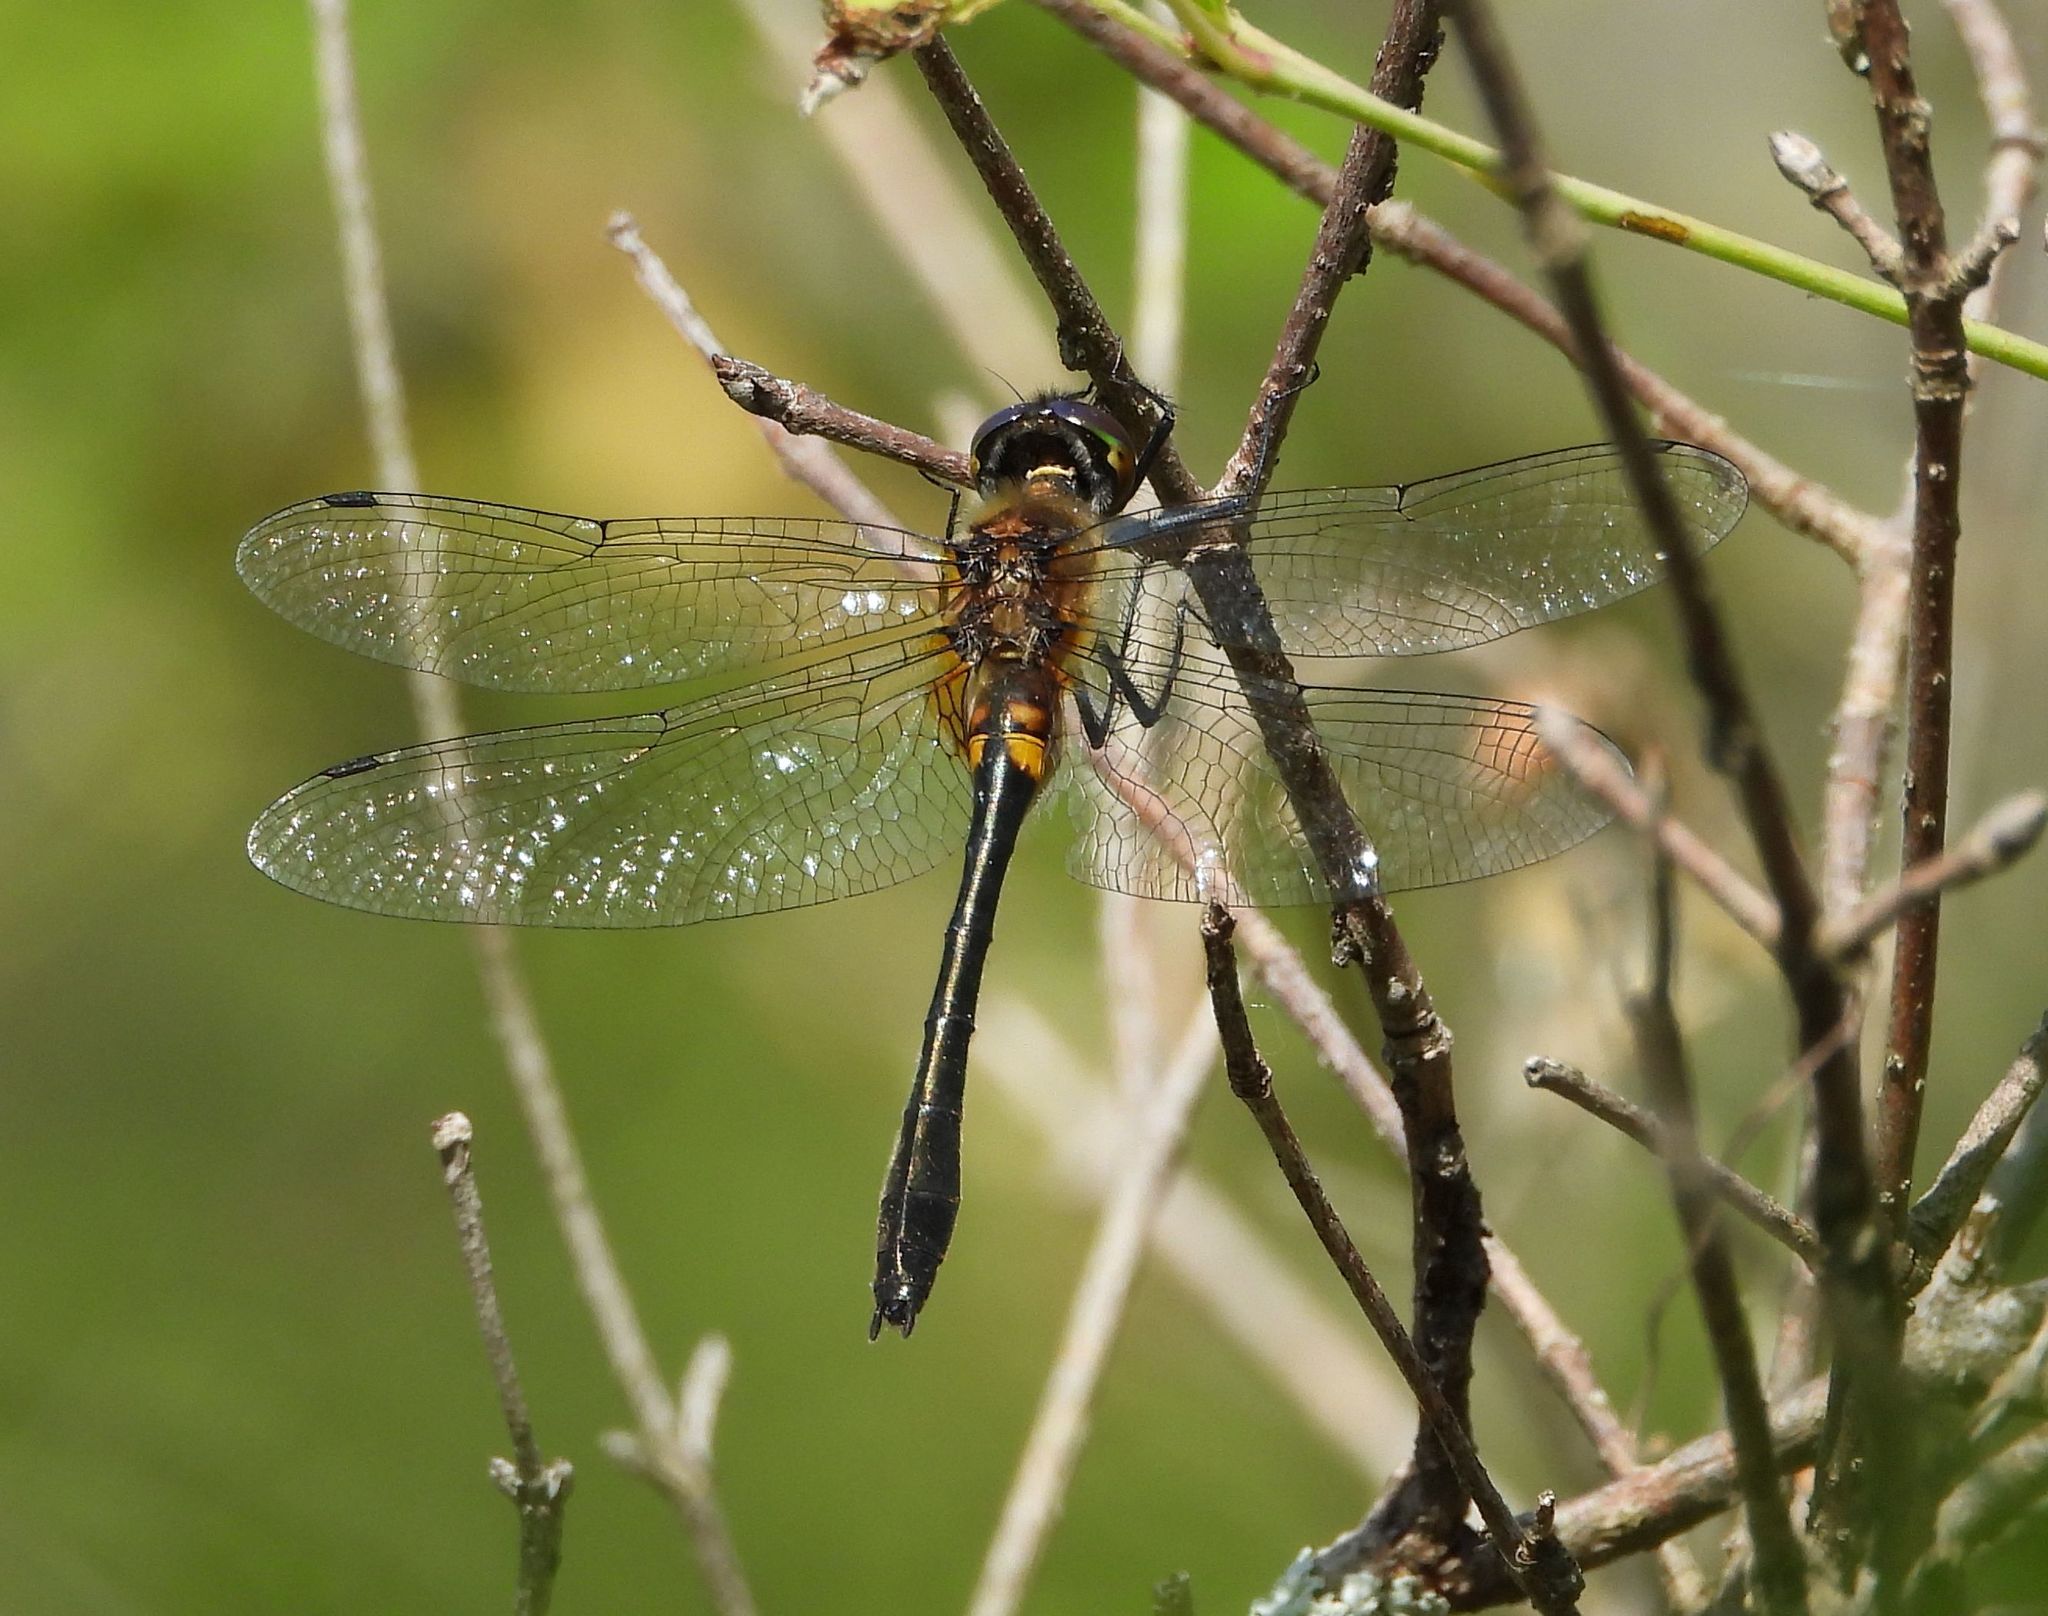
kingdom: Animalia
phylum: Arthropoda
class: Insecta
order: Odonata
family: Corduliidae
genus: Dorocordulia
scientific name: Dorocordulia libera
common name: Racket-tailed emerald
